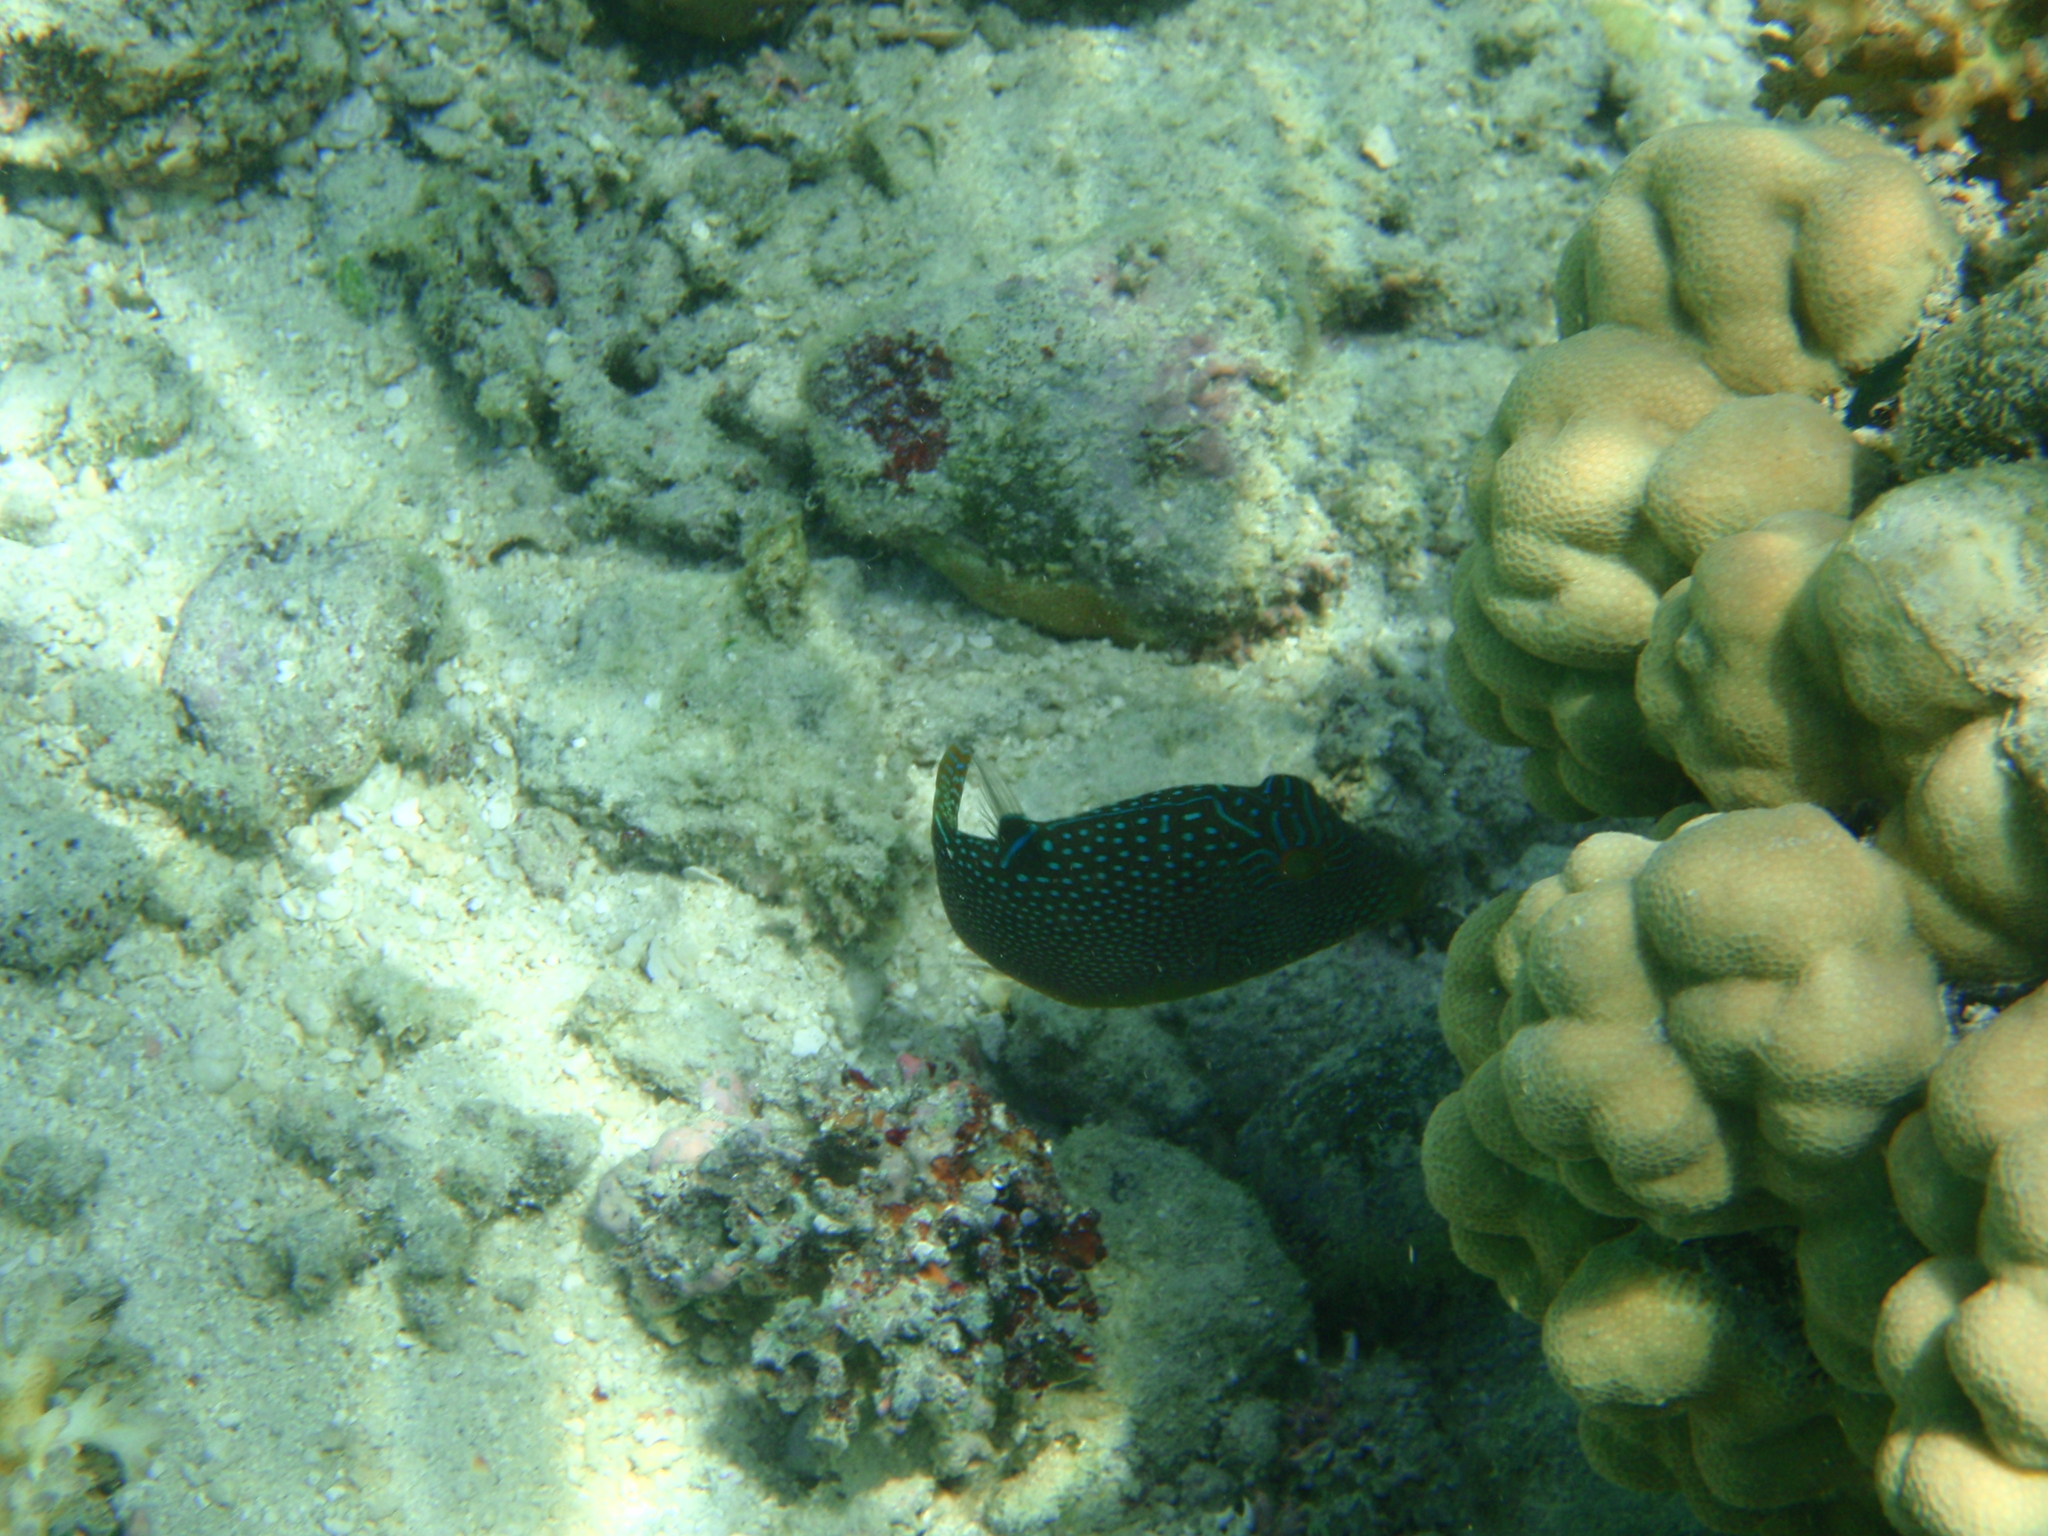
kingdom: Animalia
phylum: Chordata
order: Tetraodontiformes
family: Tetraodontidae
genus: Canthigaster
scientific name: Canthigaster solandri
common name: False-eye toby
